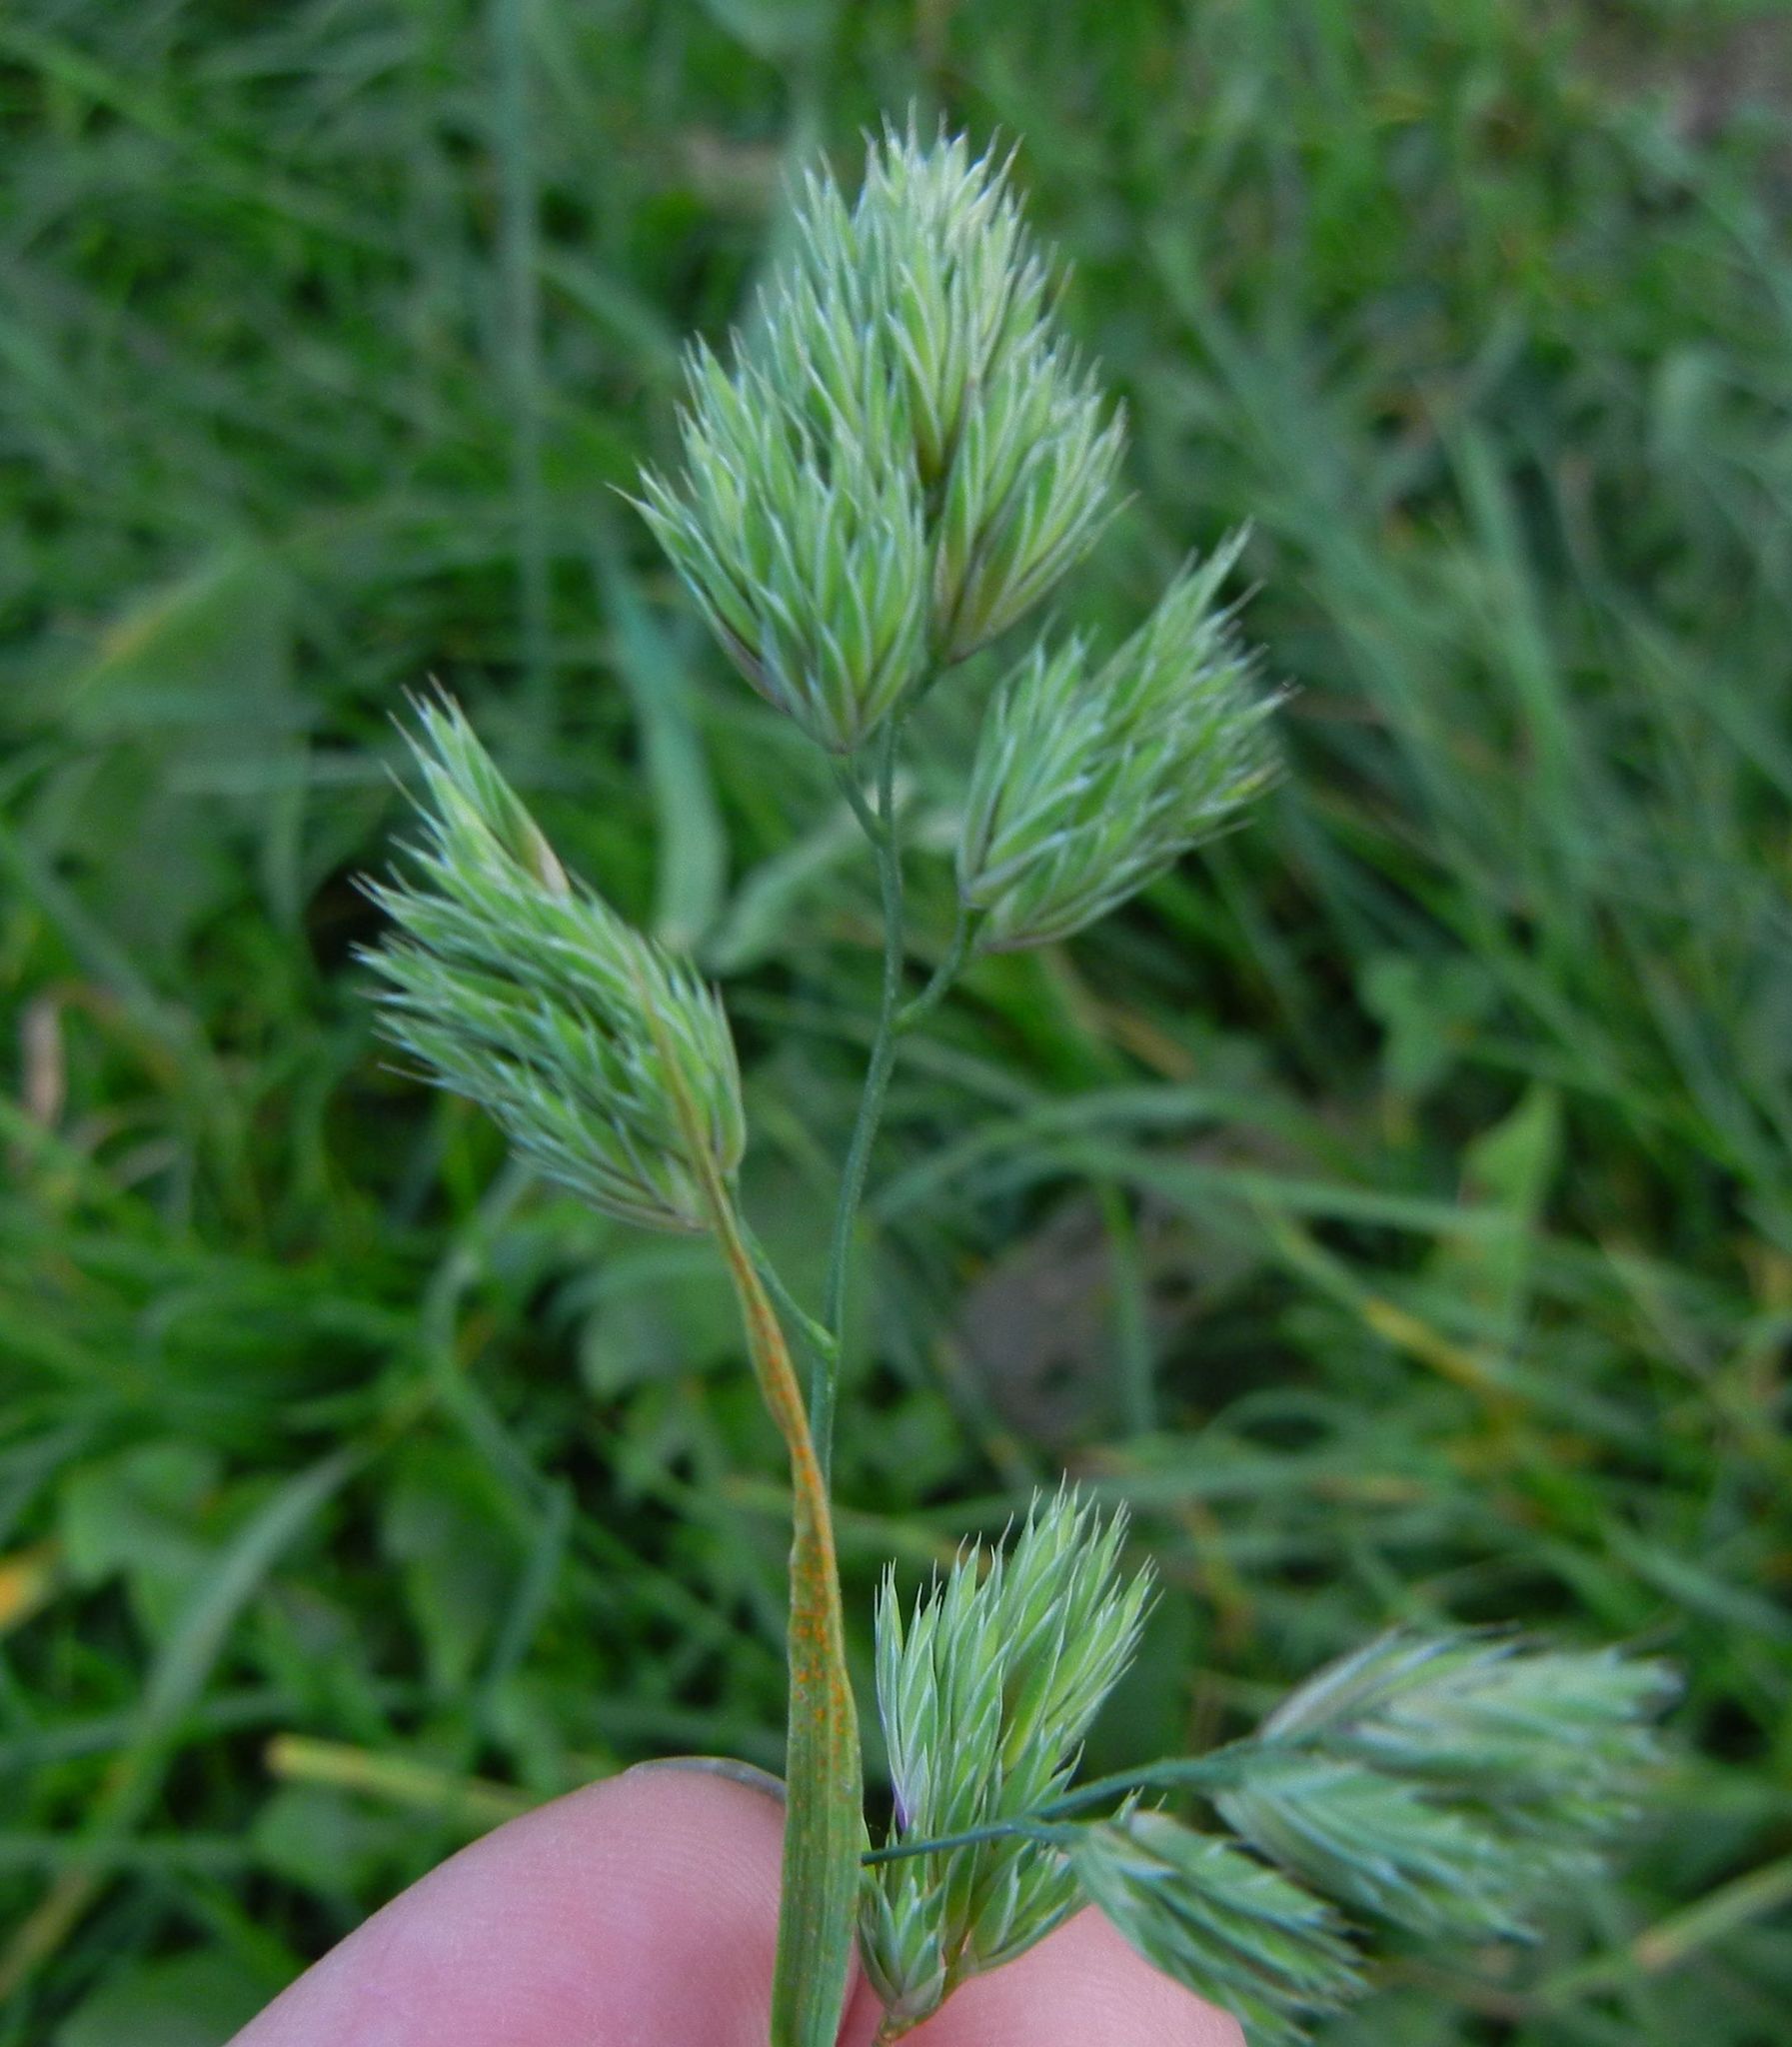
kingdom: Plantae
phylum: Tracheophyta
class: Liliopsida
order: Poales
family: Poaceae
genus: Dactylis
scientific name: Dactylis glomerata
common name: Orchardgrass
